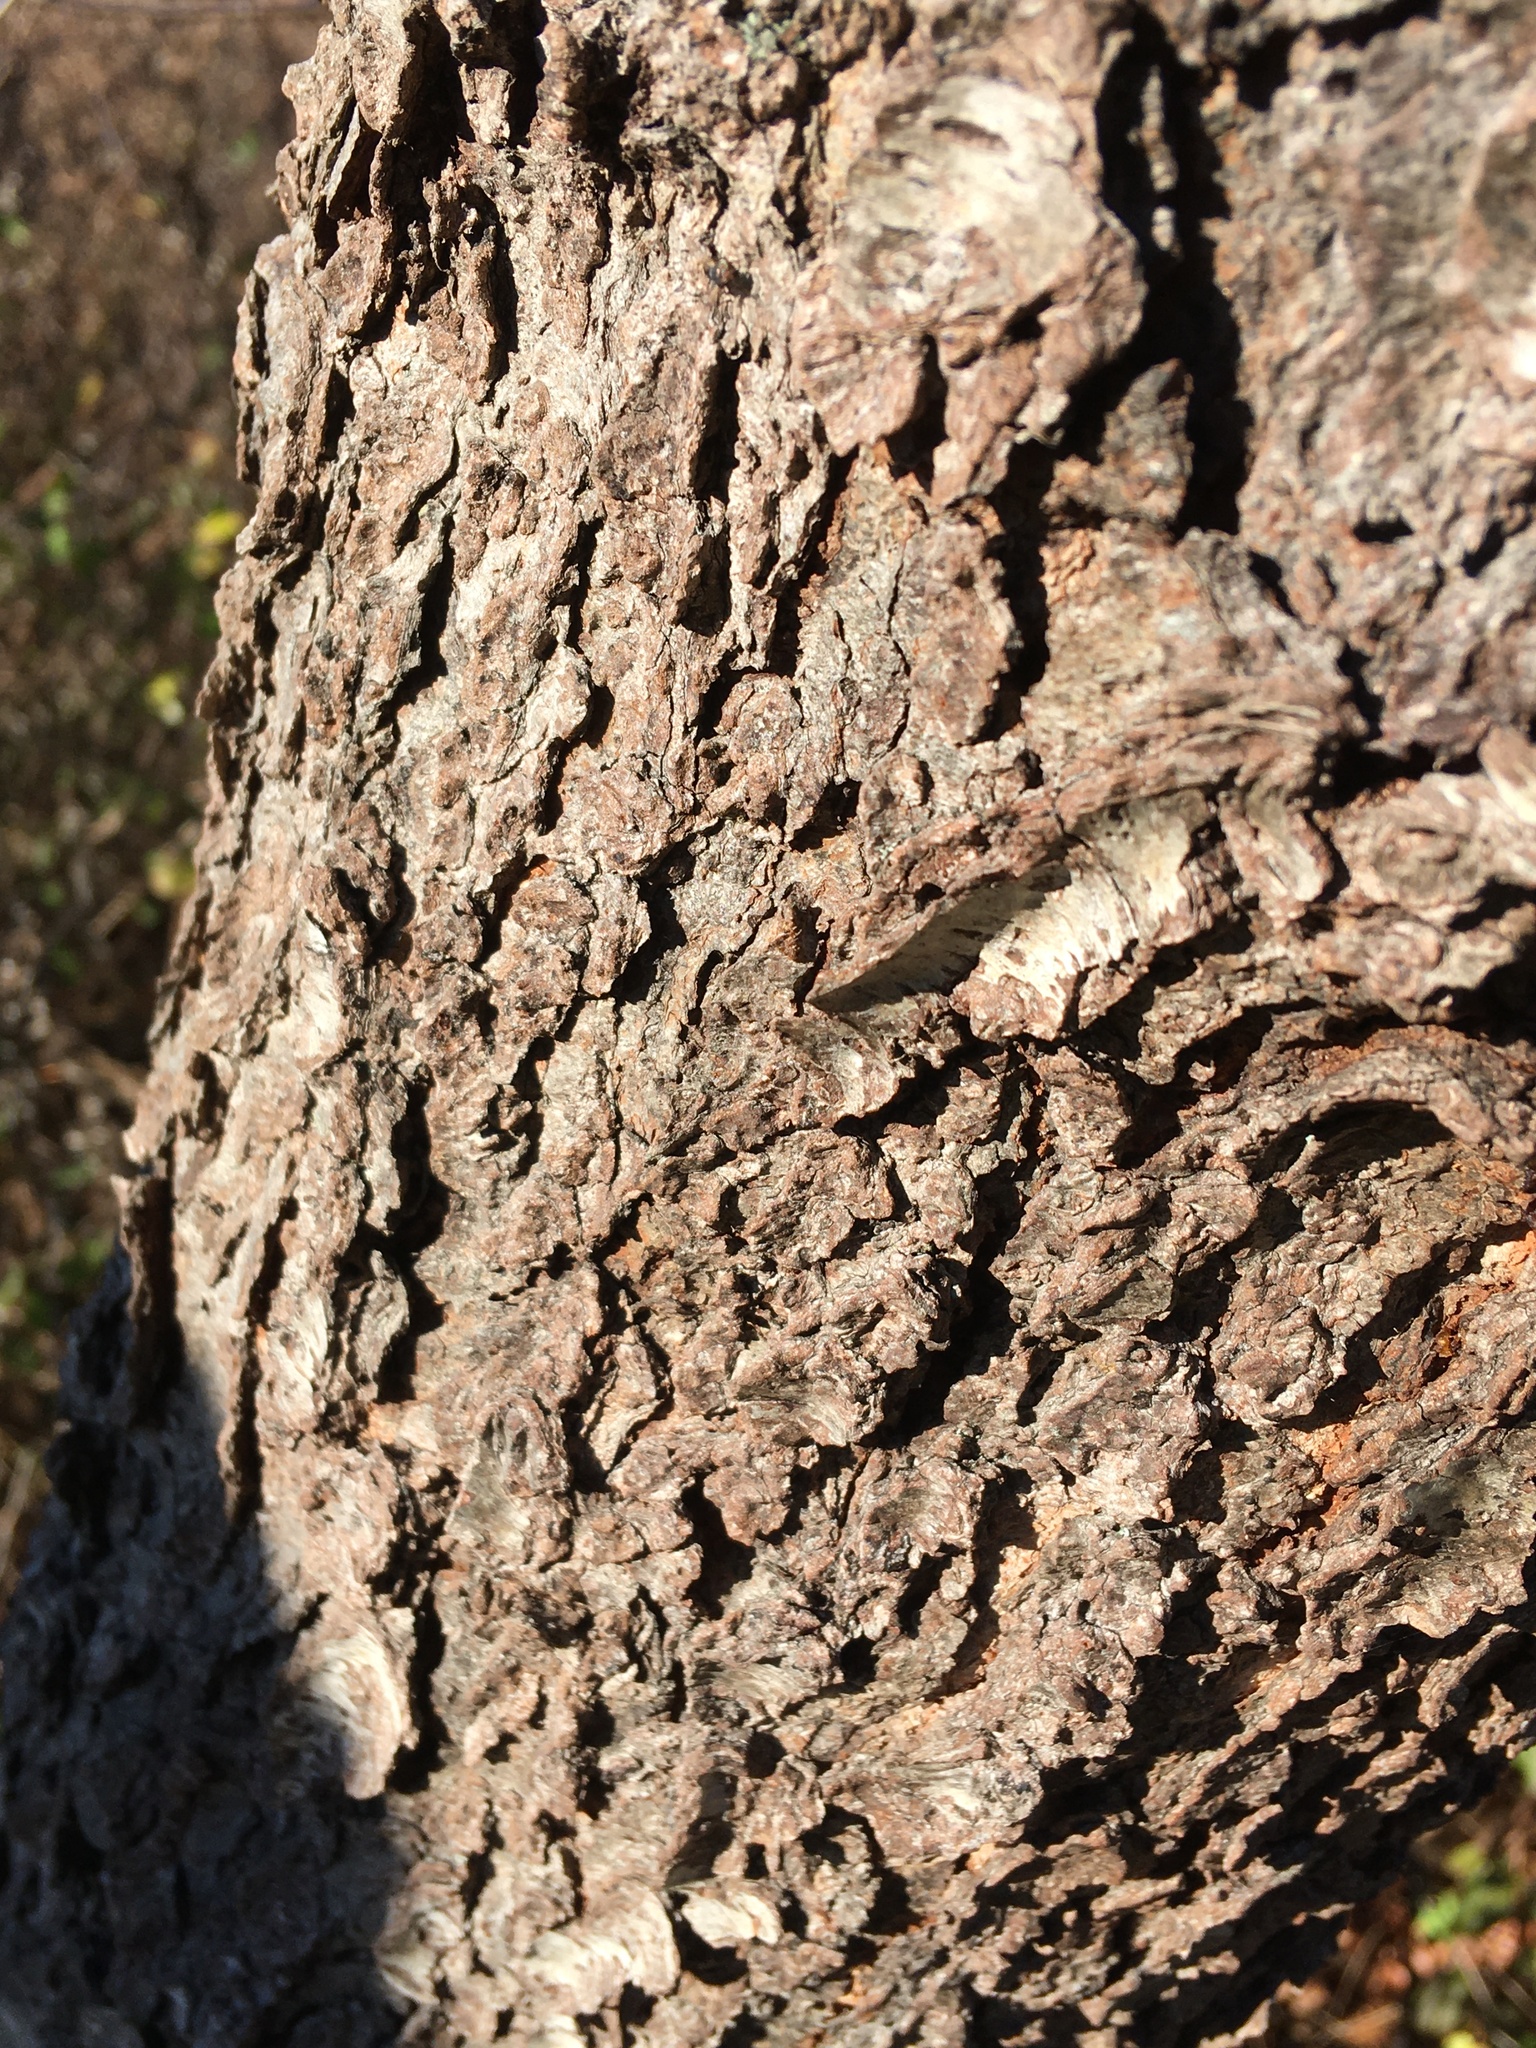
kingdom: Plantae
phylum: Tracheophyta
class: Magnoliopsida
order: Rosales
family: Rosaceae
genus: Prunus
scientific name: Prunus serotina
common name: Black cherry
